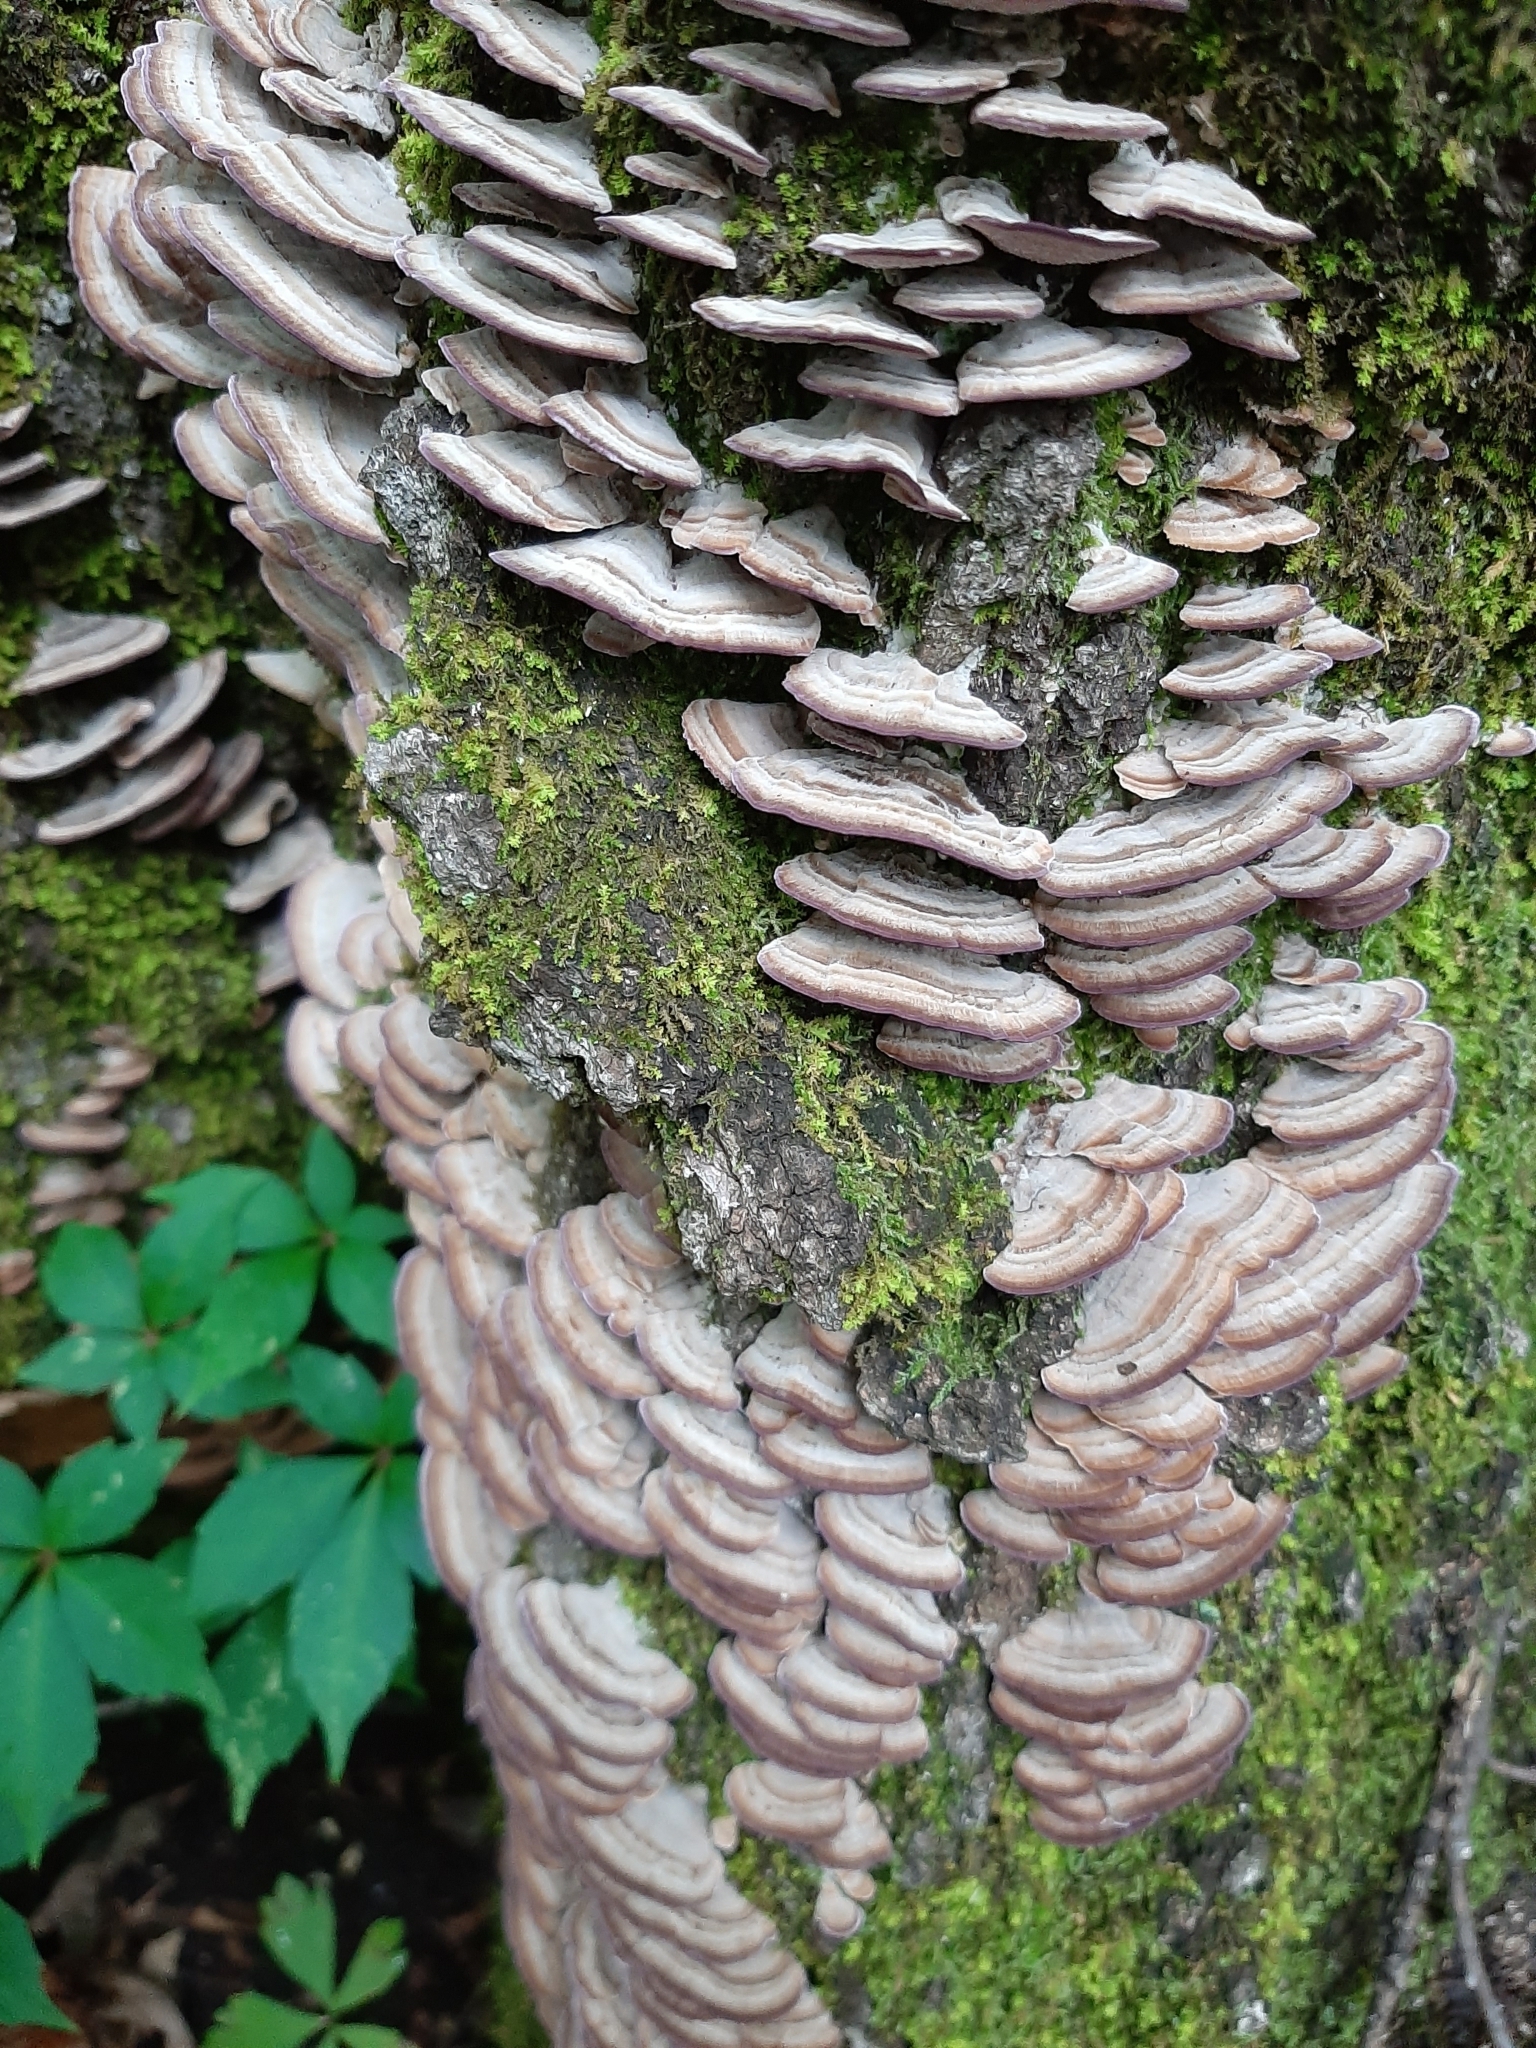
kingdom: Fungi
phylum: Basidiomycota
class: Agaricomycetes
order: Hymenochaetales
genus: Trichaptum
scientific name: Trichaptum biforme
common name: Violet-toothed polypore
